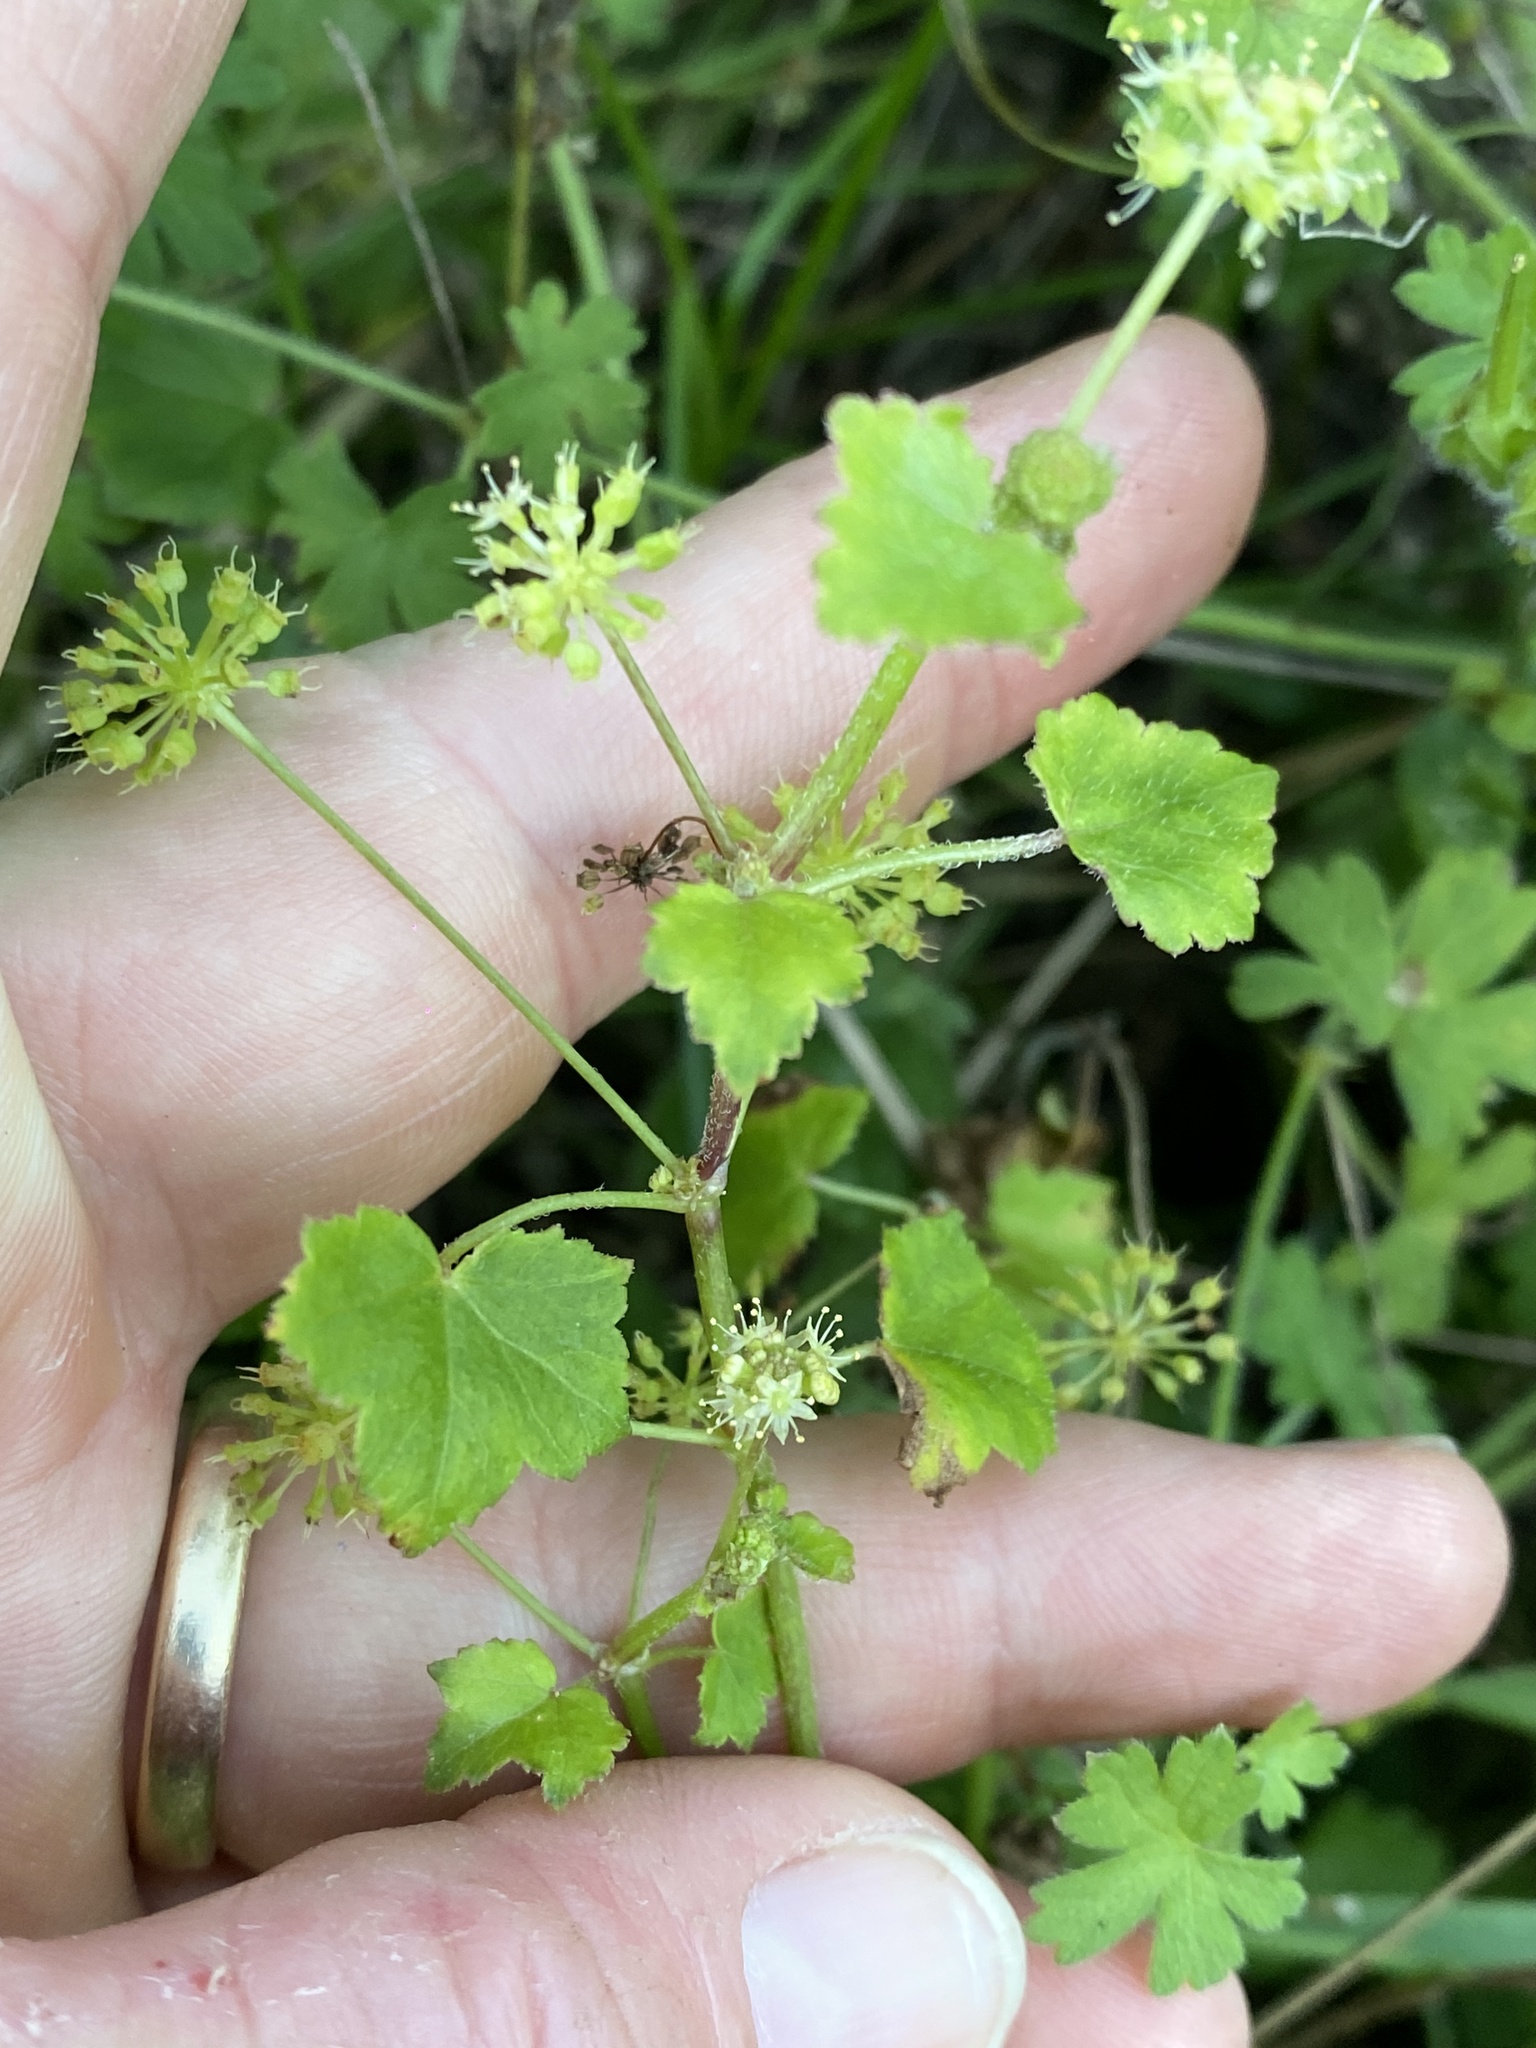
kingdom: Plantae
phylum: Tracheophyta
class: Magnoliopsida
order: Apiales
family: Araliaceae
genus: Hydrocotyle
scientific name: Hydrocotyle laxiflora
